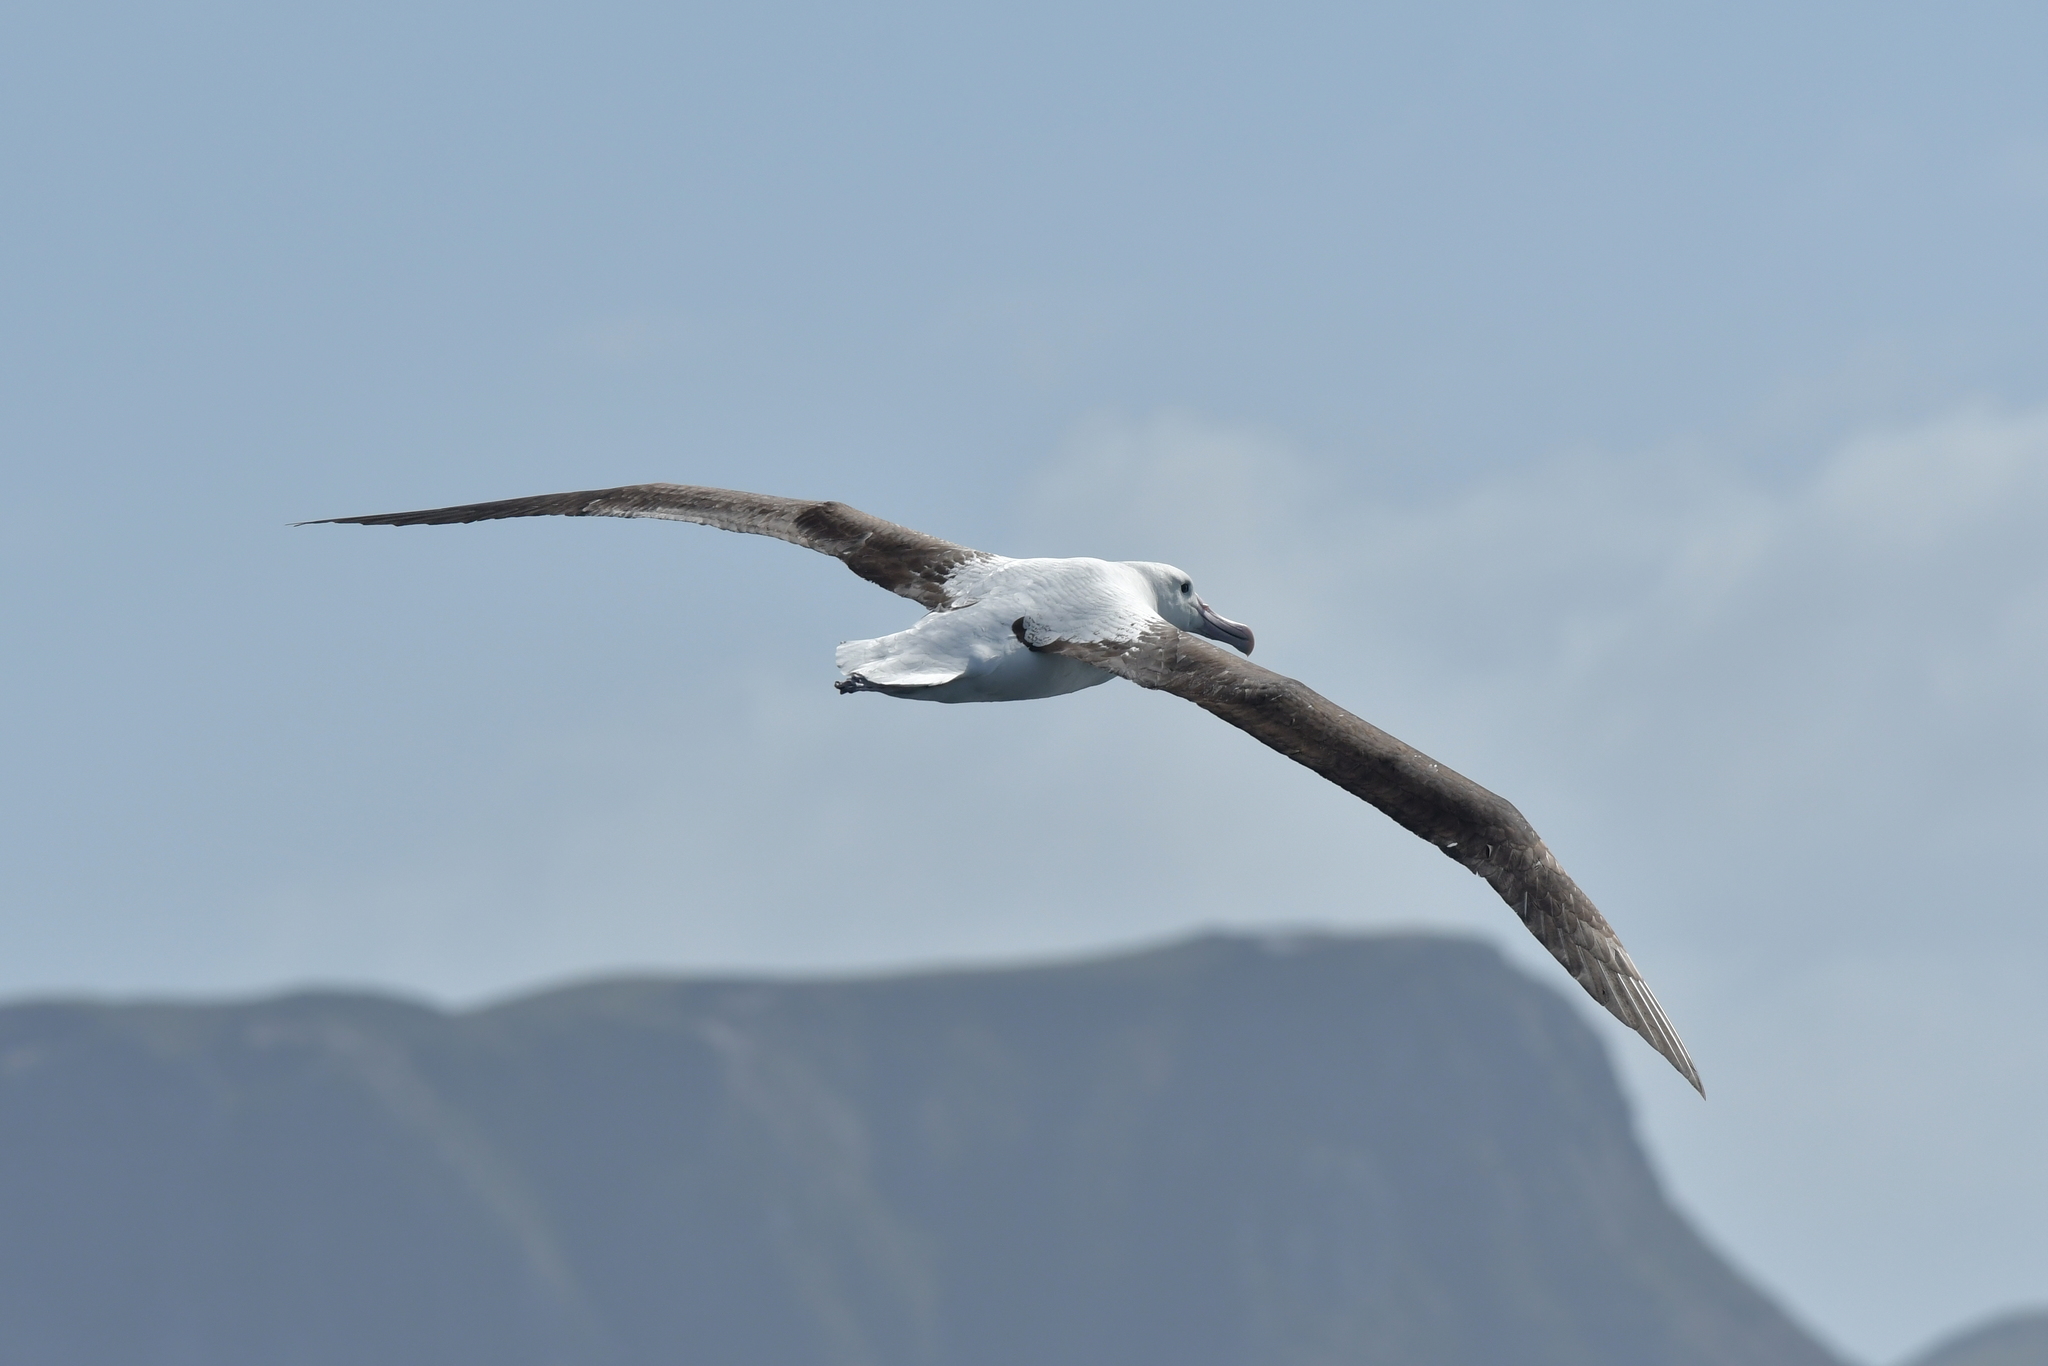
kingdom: Animalia
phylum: Chordata
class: Aves
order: Procellariiformes
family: Diomedeidae
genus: Diomedea
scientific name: Diomedea sanfordi
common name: Northern royal albatross
